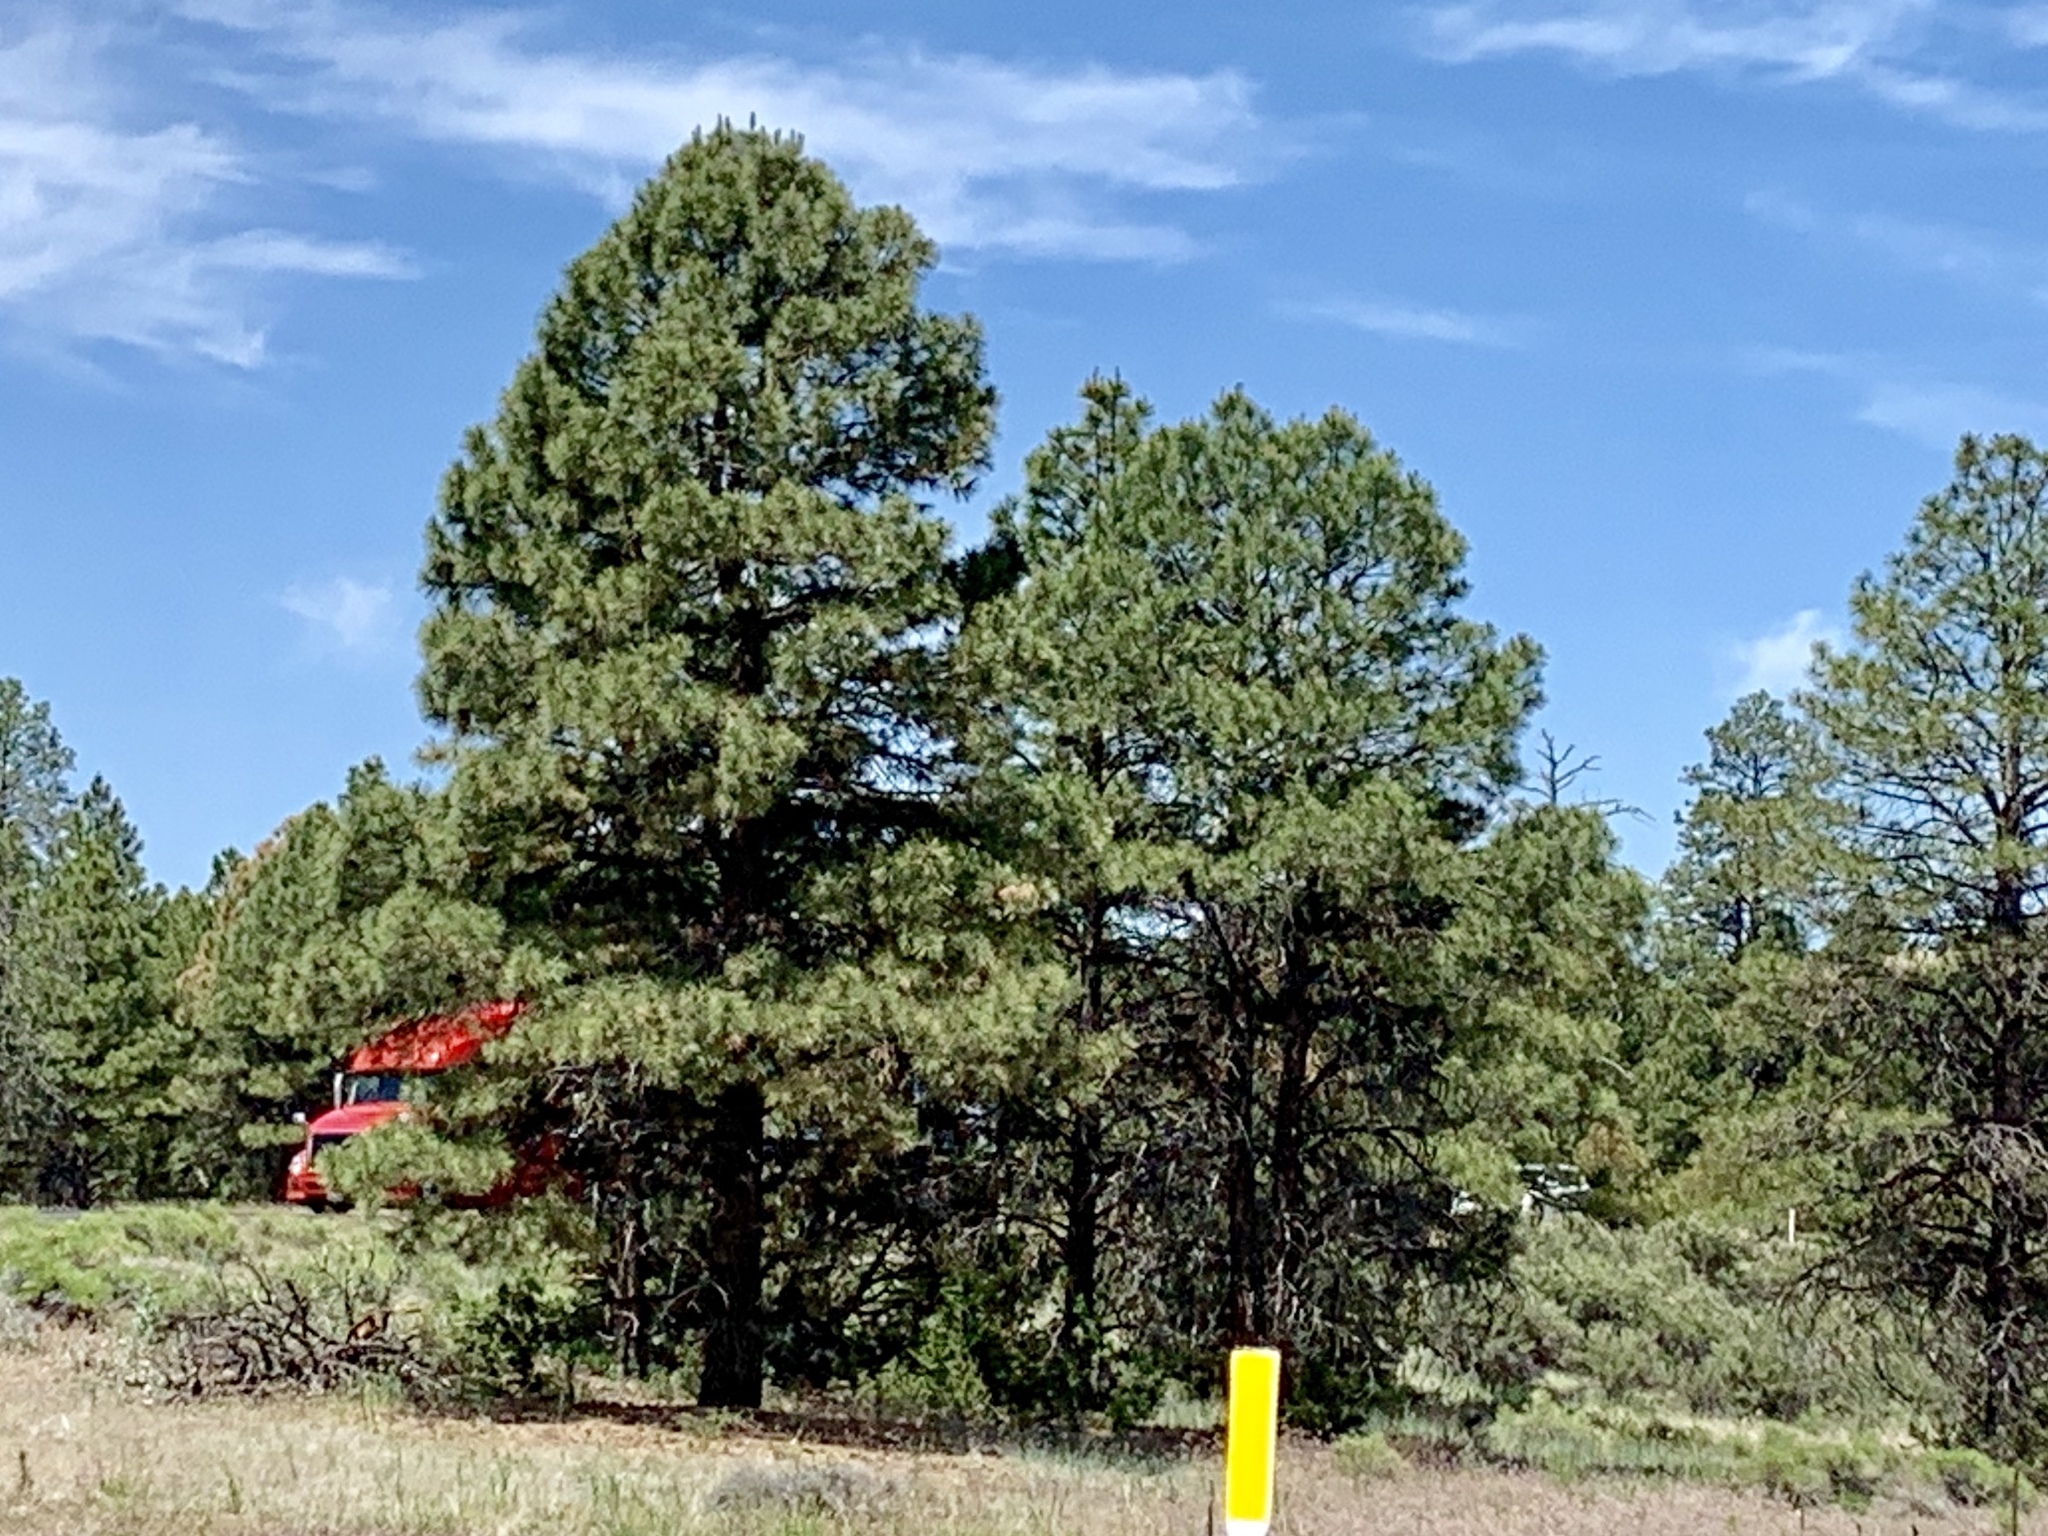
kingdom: Plantae
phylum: Tracheophyta
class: Pinopsida
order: Pinales
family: Pinaceae
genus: Pinus
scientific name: Pinus ponderosa
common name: Western yellow-pine
